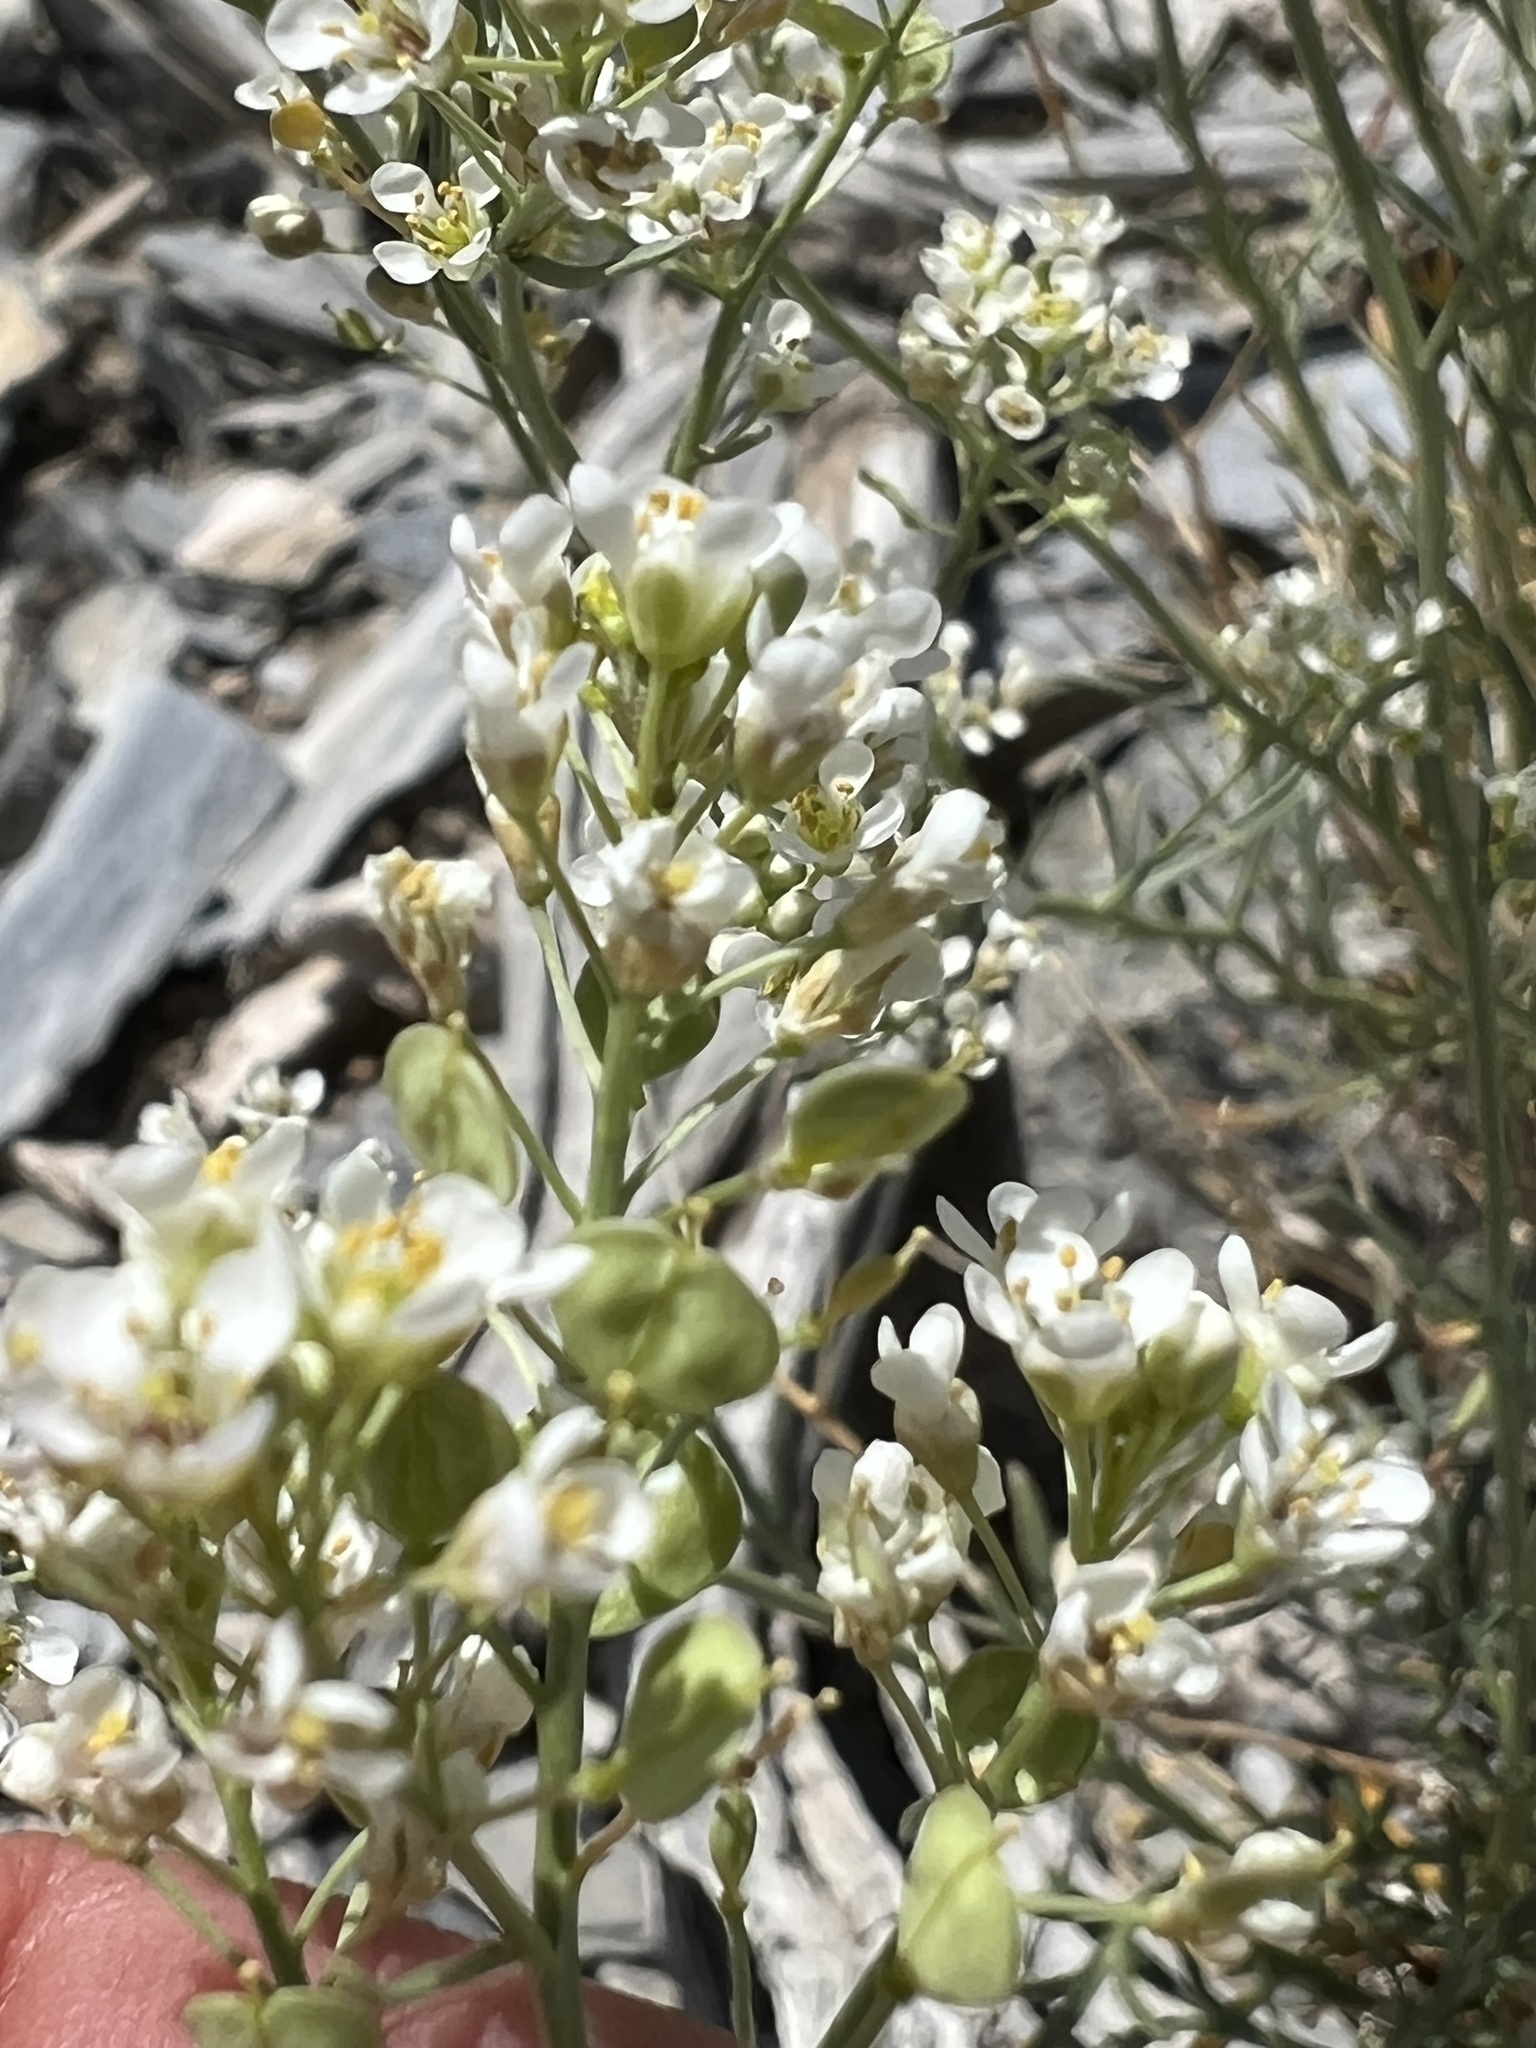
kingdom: Plantae
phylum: Tracheophyta
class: Magnoliopsida
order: Brassicales
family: Brassicaceae
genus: Lepidium
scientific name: Lepidium fremontii
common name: Fremont's pepperwort
